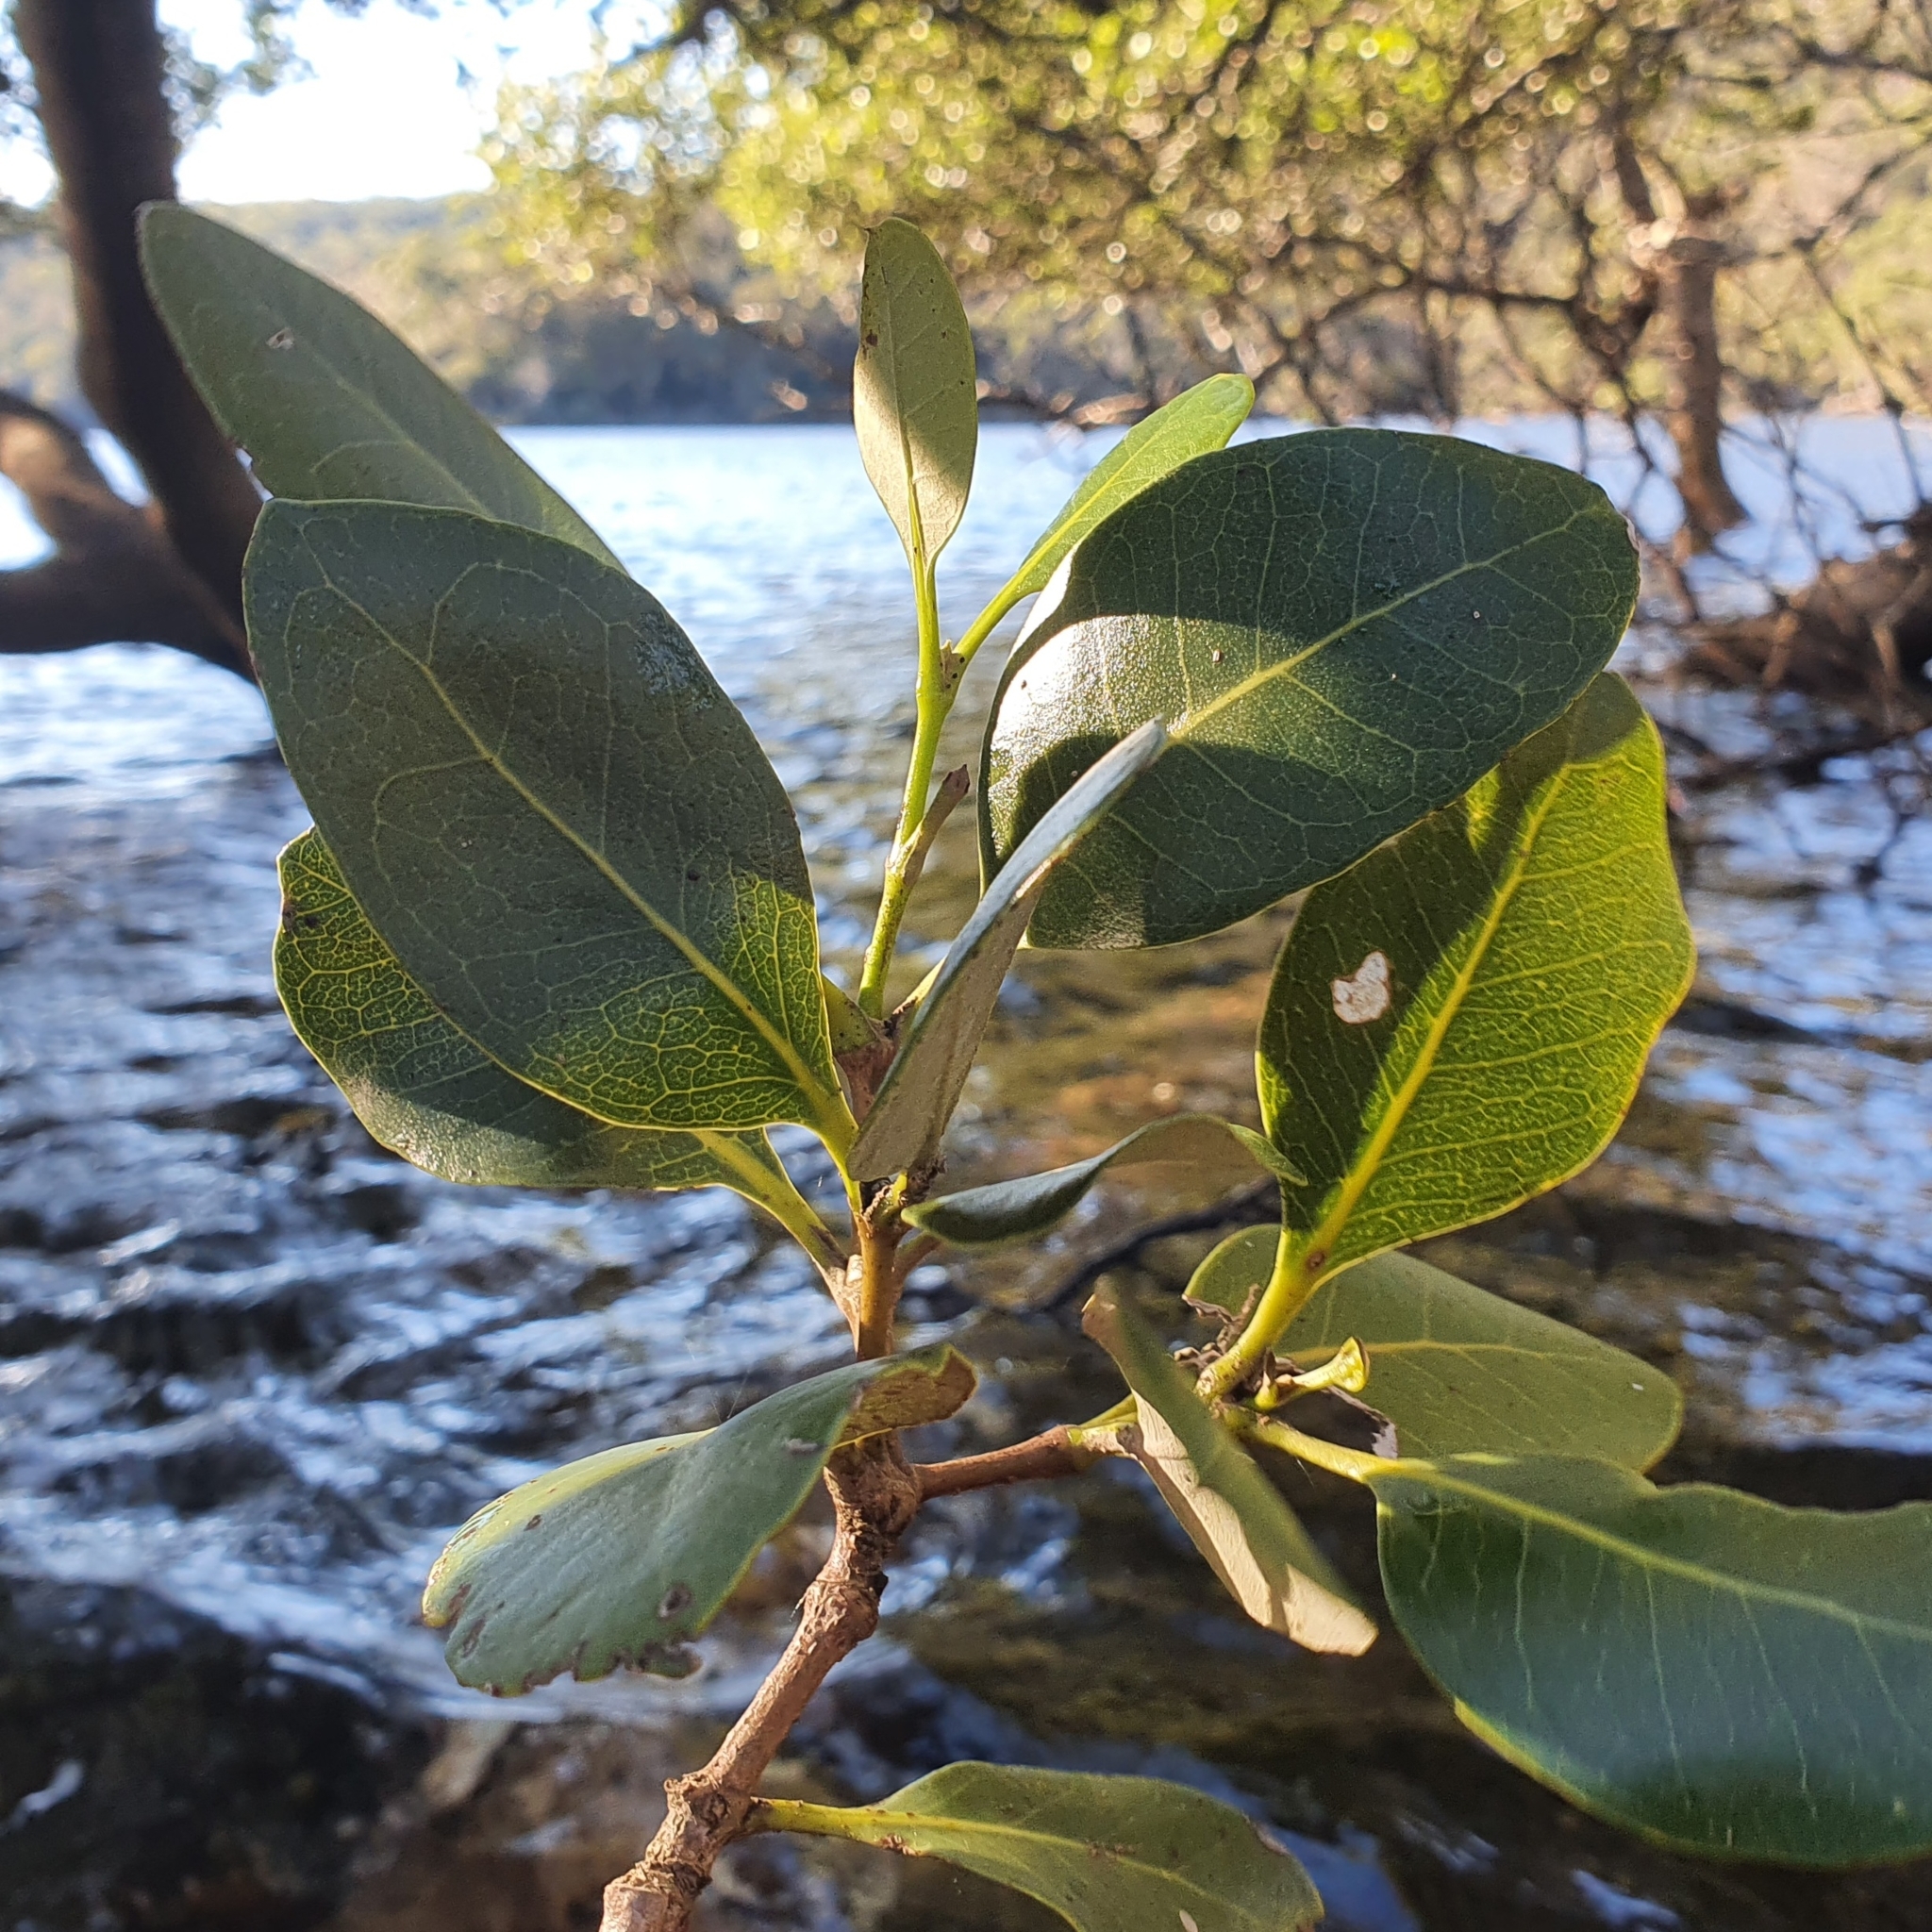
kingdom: Plantae
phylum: Tracheophyta
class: Magnoliopsida
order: Lamiales
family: Acanthaceae
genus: Avicennia
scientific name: Avicennia marina
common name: Gray mangrove
